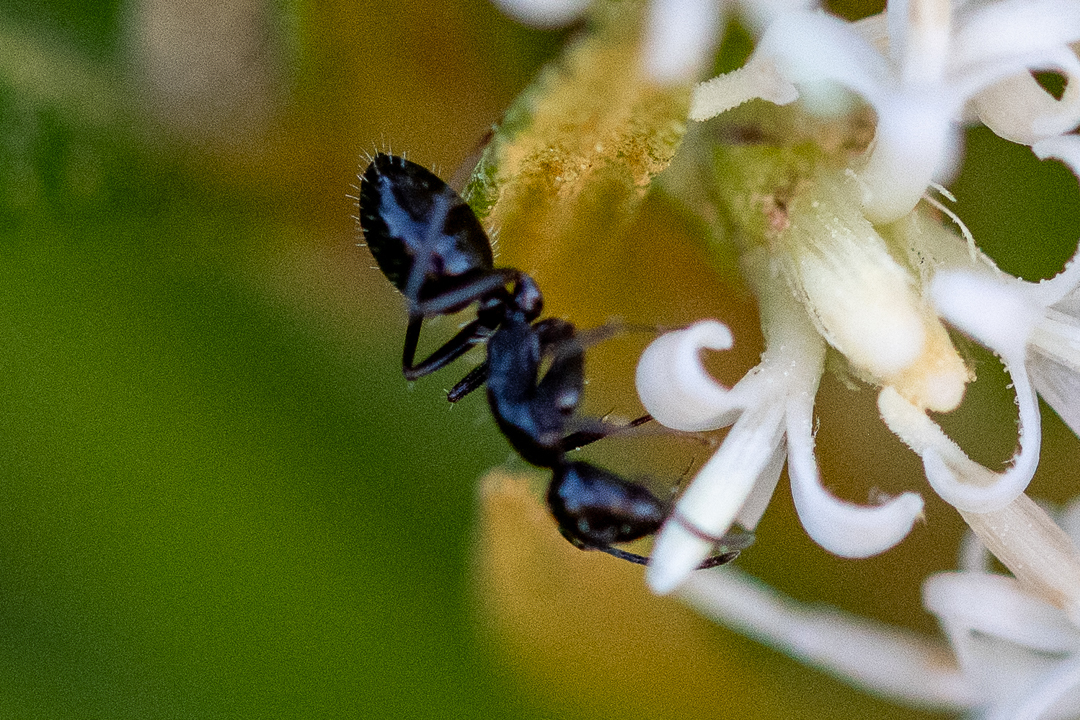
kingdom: Animalia
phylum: Arthropoda
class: Insecta
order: Hymenoptera
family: Formicidae
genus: Camponotus
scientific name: Camponotus werthi
